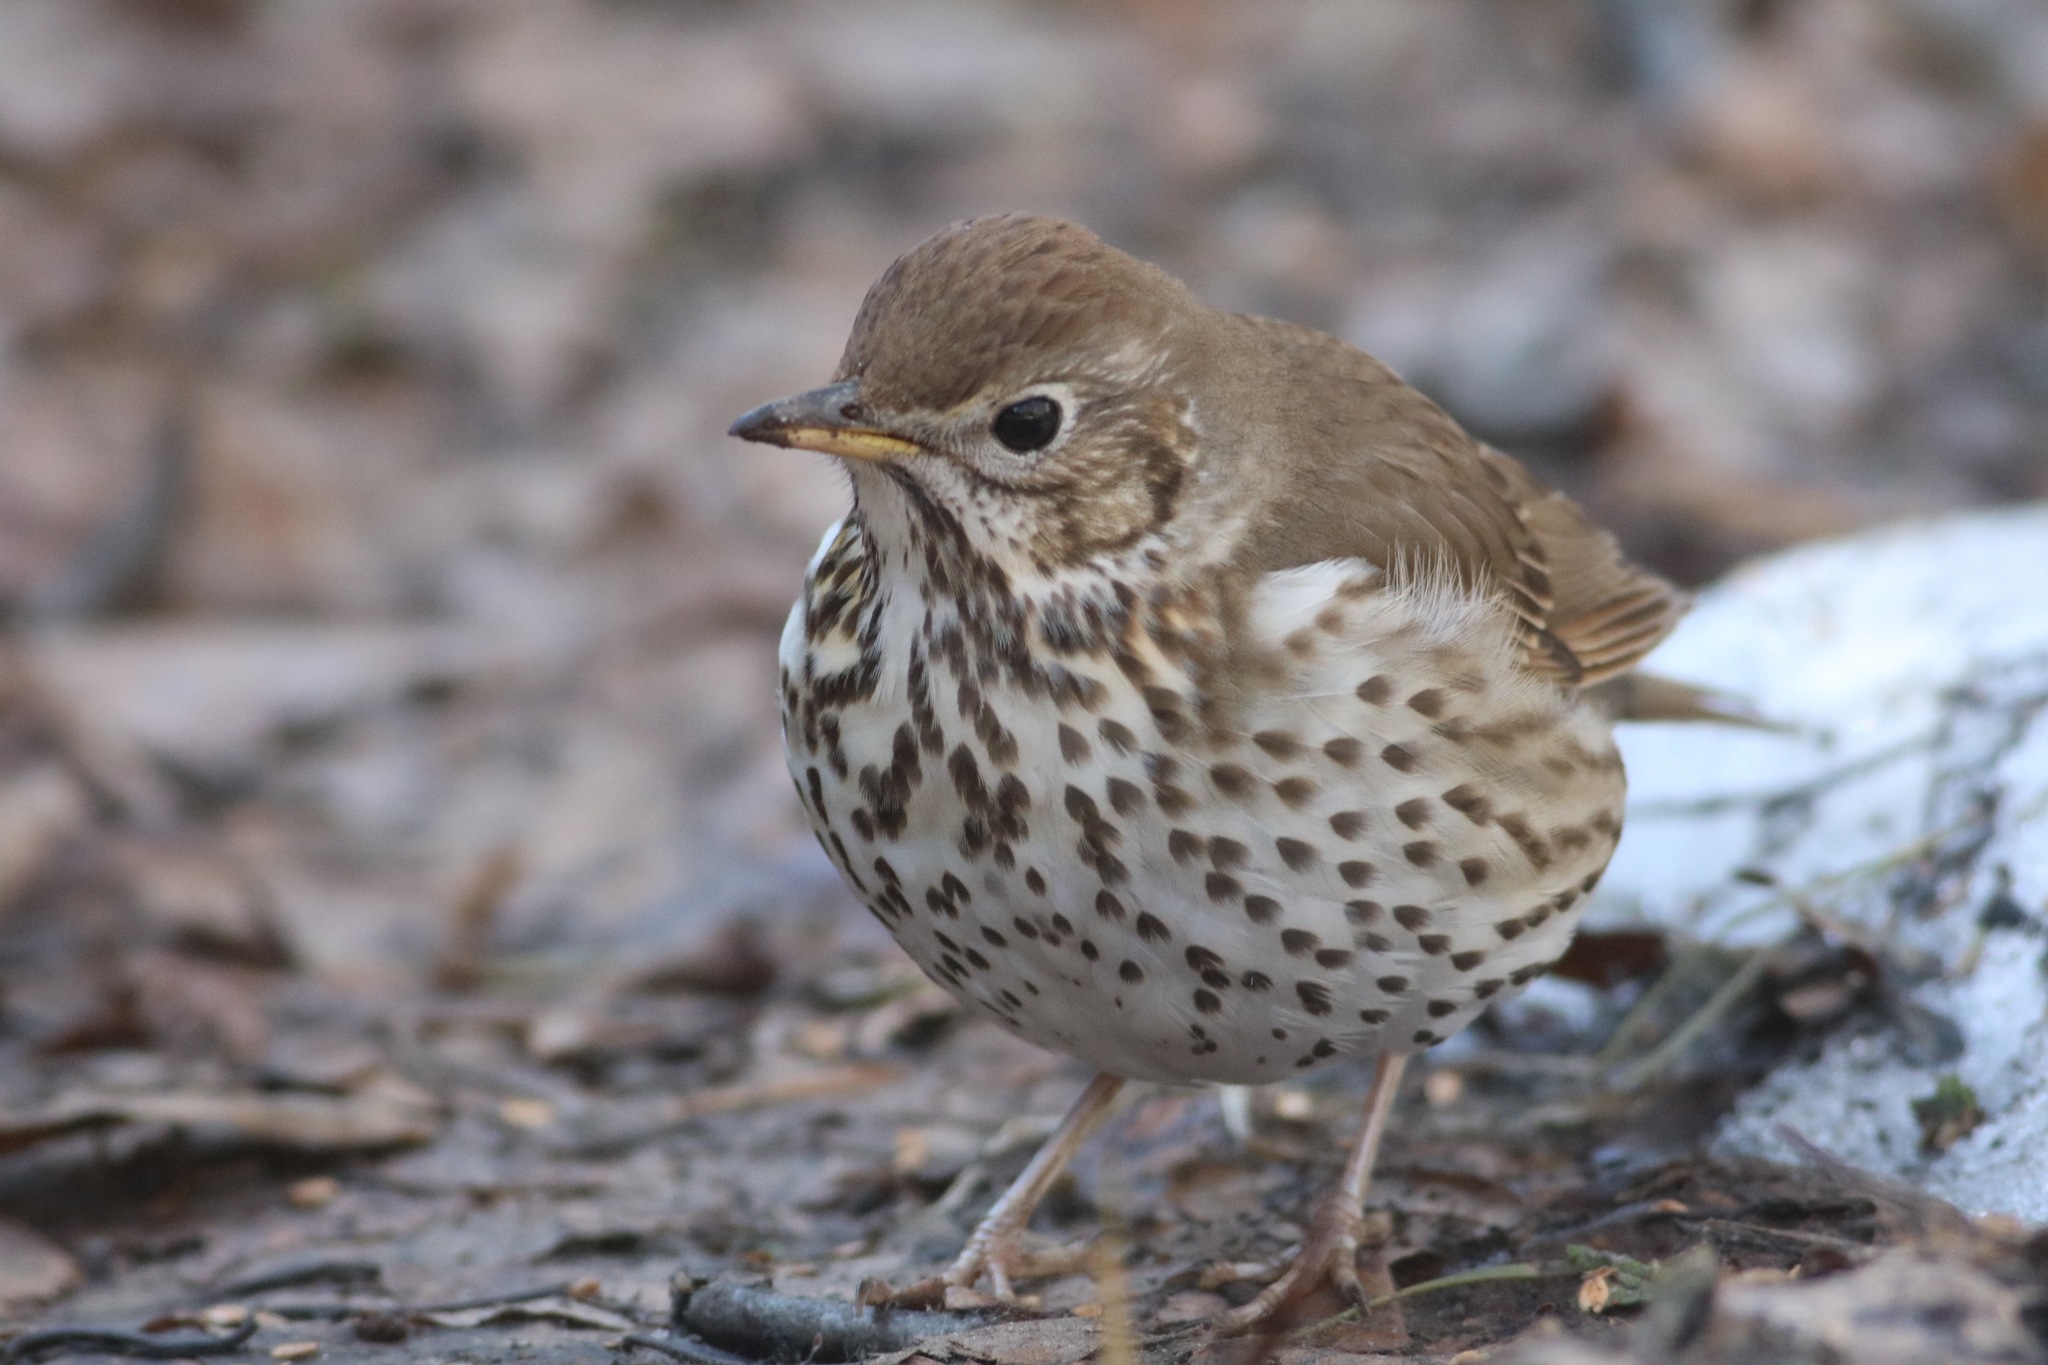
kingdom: Animalia
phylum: Chordata
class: Aves
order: Passeriformes
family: Turdidae
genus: Turdus
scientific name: Turdus philomelos
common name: Song thrush
